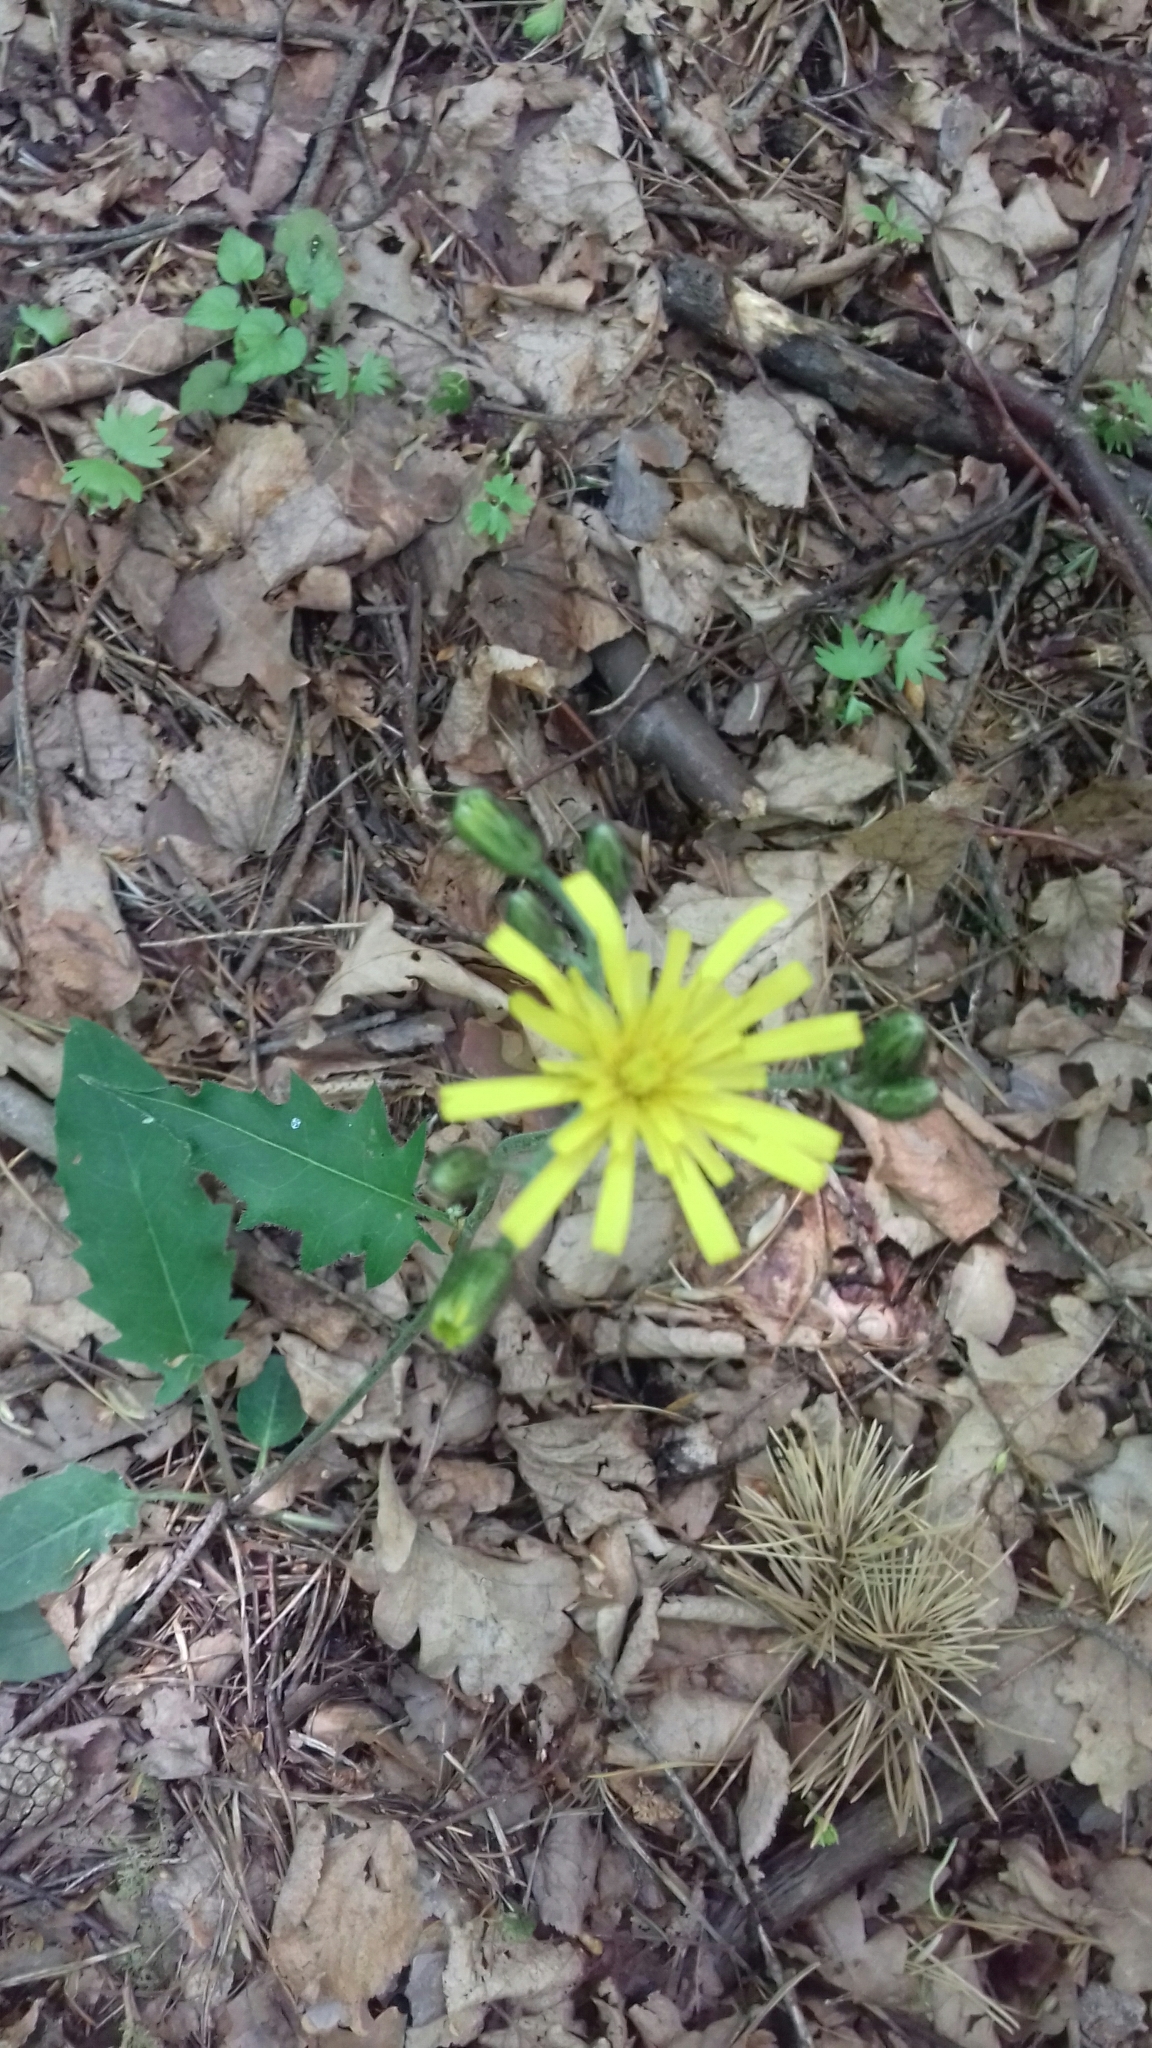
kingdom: Plantae
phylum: Tracheophyta
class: Magnoliopsida
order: Asterales
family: Asteraceae
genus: Hieracium
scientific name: Hieracium murorum
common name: Wall hawkweed
